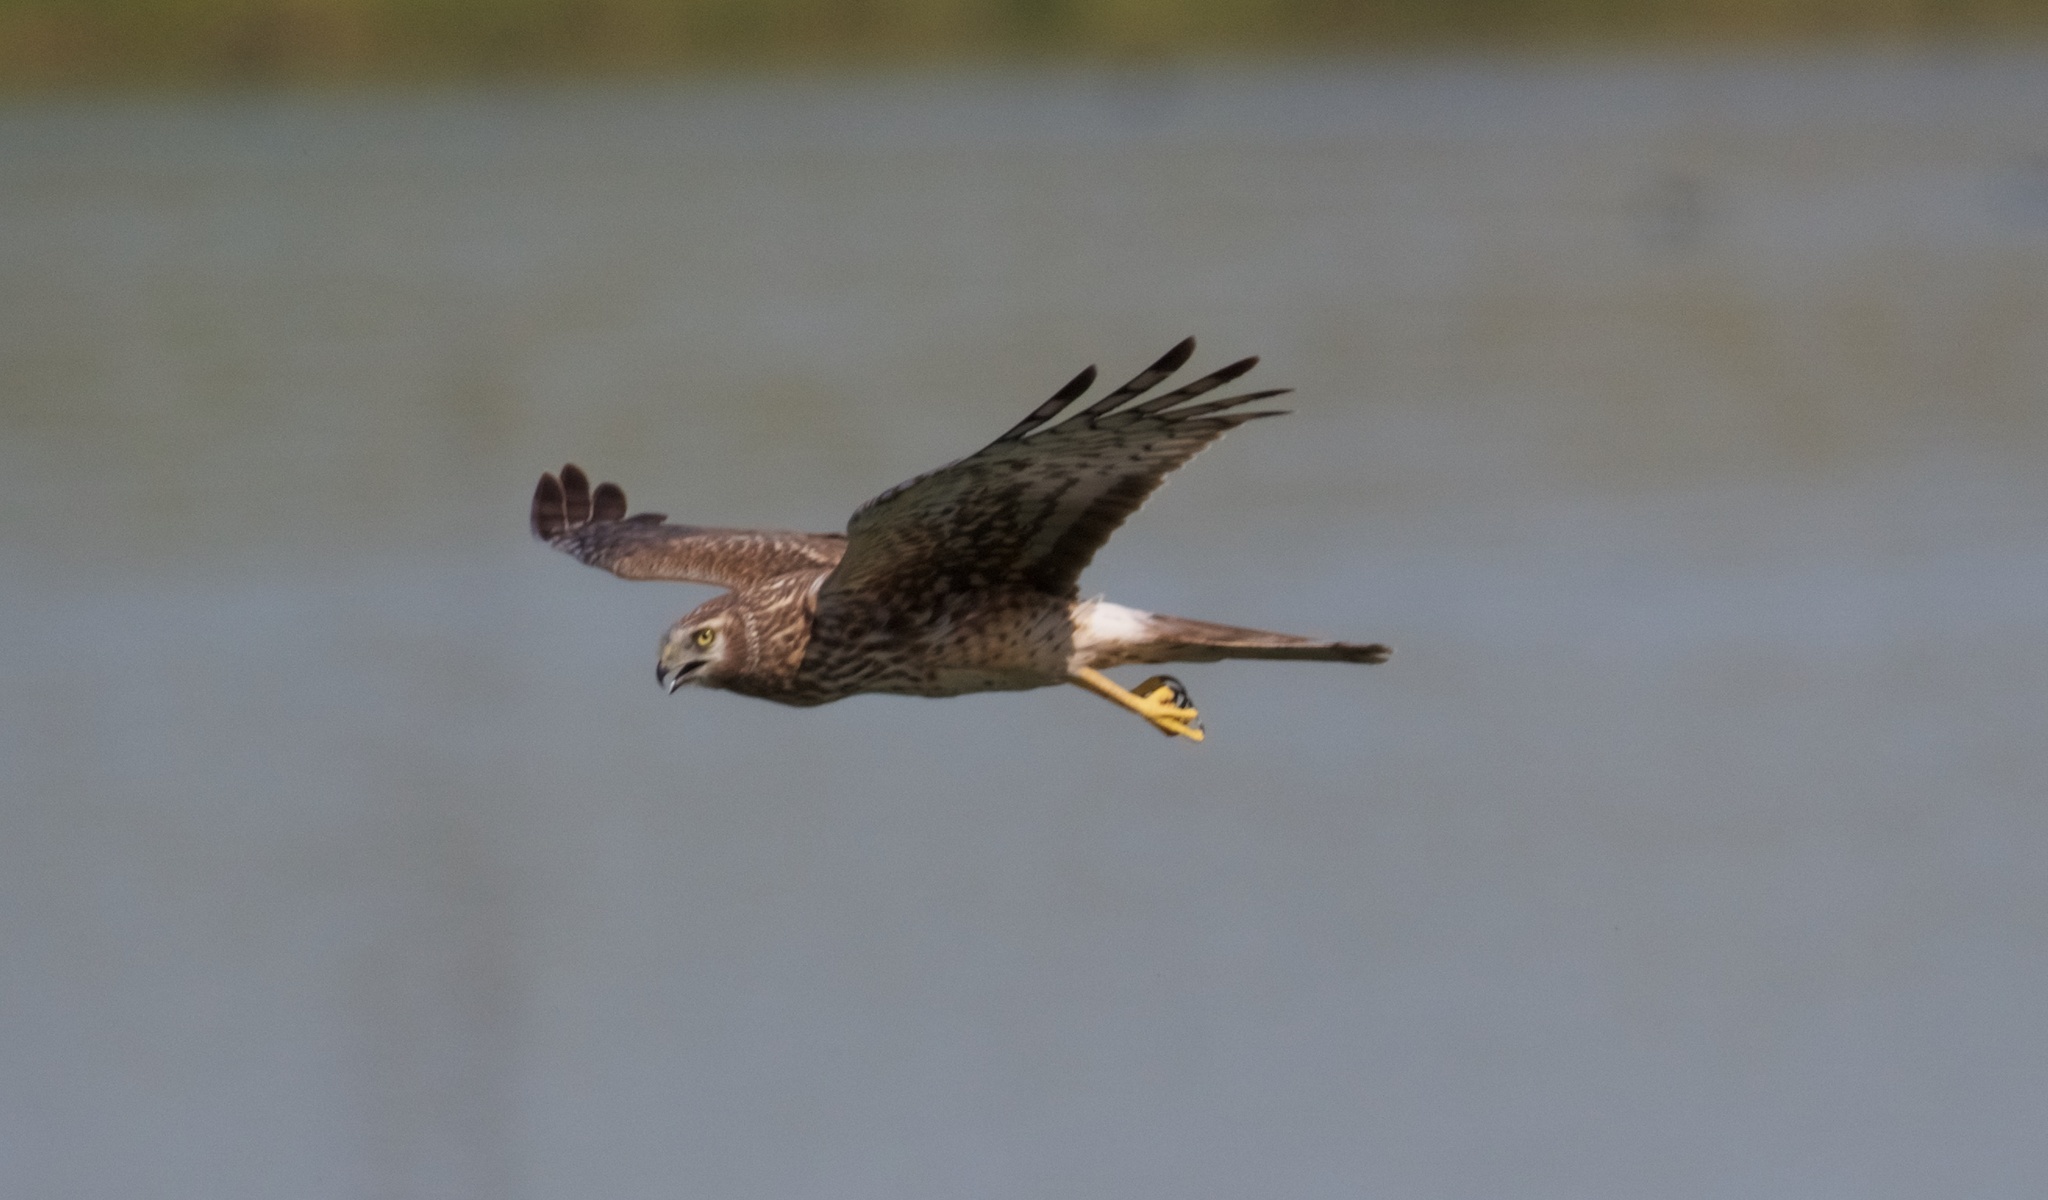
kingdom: Animalia
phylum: Chordata
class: Aves
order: Accipitriformes
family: Accipitridae
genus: Circus
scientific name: Circus cyaneus
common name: Hen harrier
